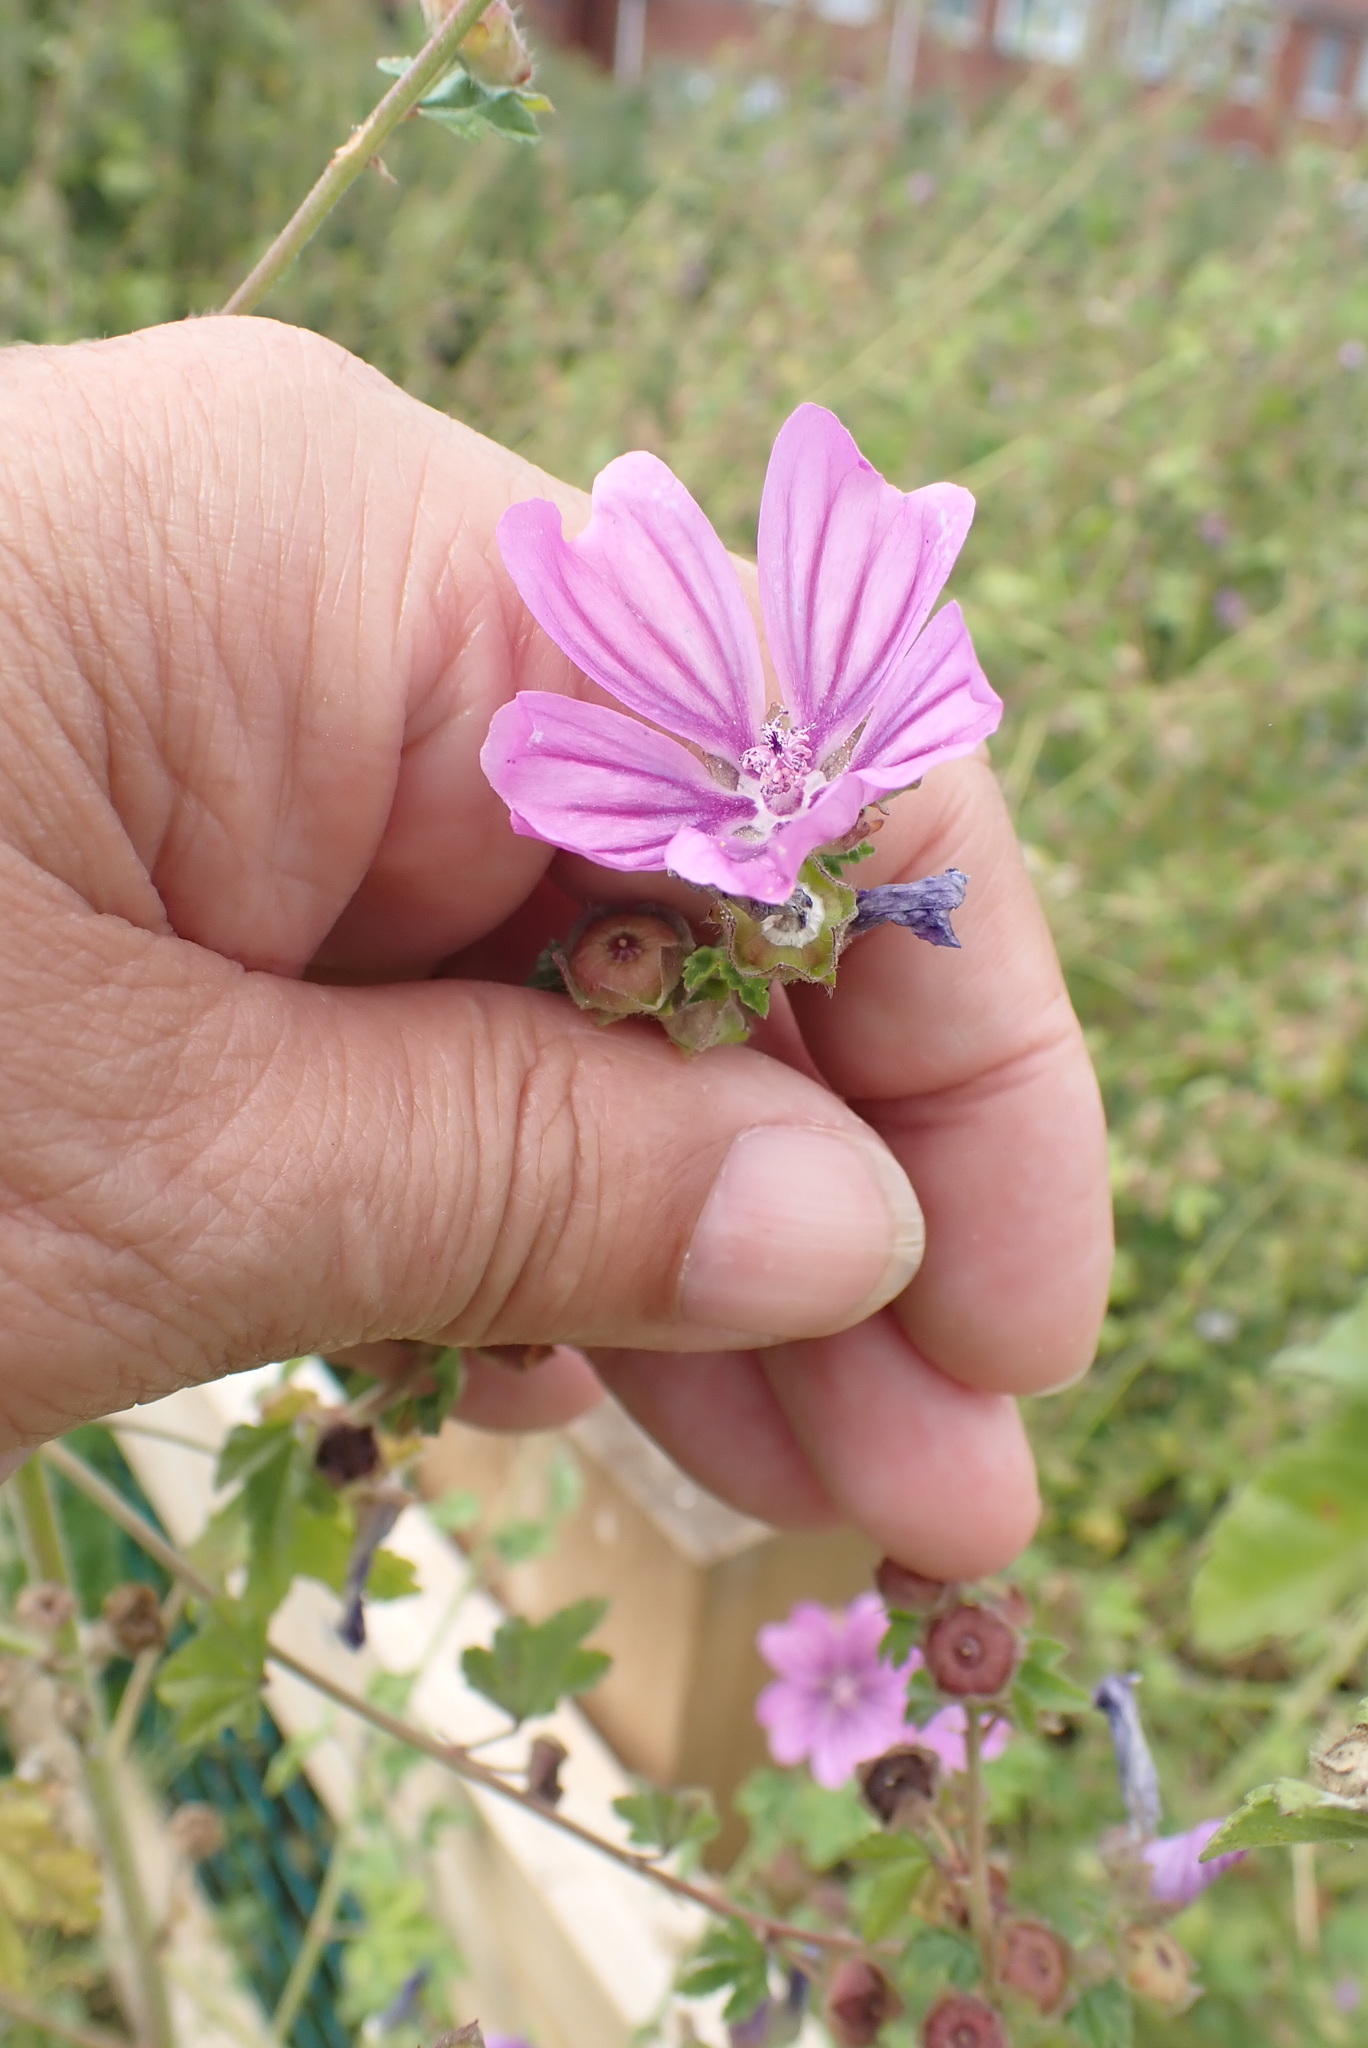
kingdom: Plantae
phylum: Tracheophyta
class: Magnoliopsida
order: Malvales
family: Malvaceae
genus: Malva
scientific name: Malva sylvestris
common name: Common mallow
